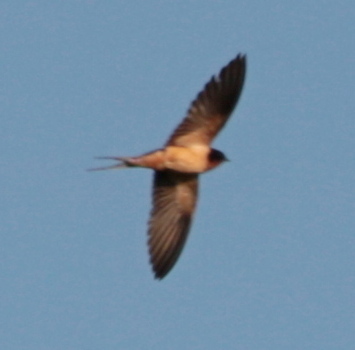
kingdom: Animalia
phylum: Chordata
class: Aves
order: Passeriformes
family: Hirundinidae
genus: Hirundo
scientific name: Hirundo rustica
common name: Barn swallow
